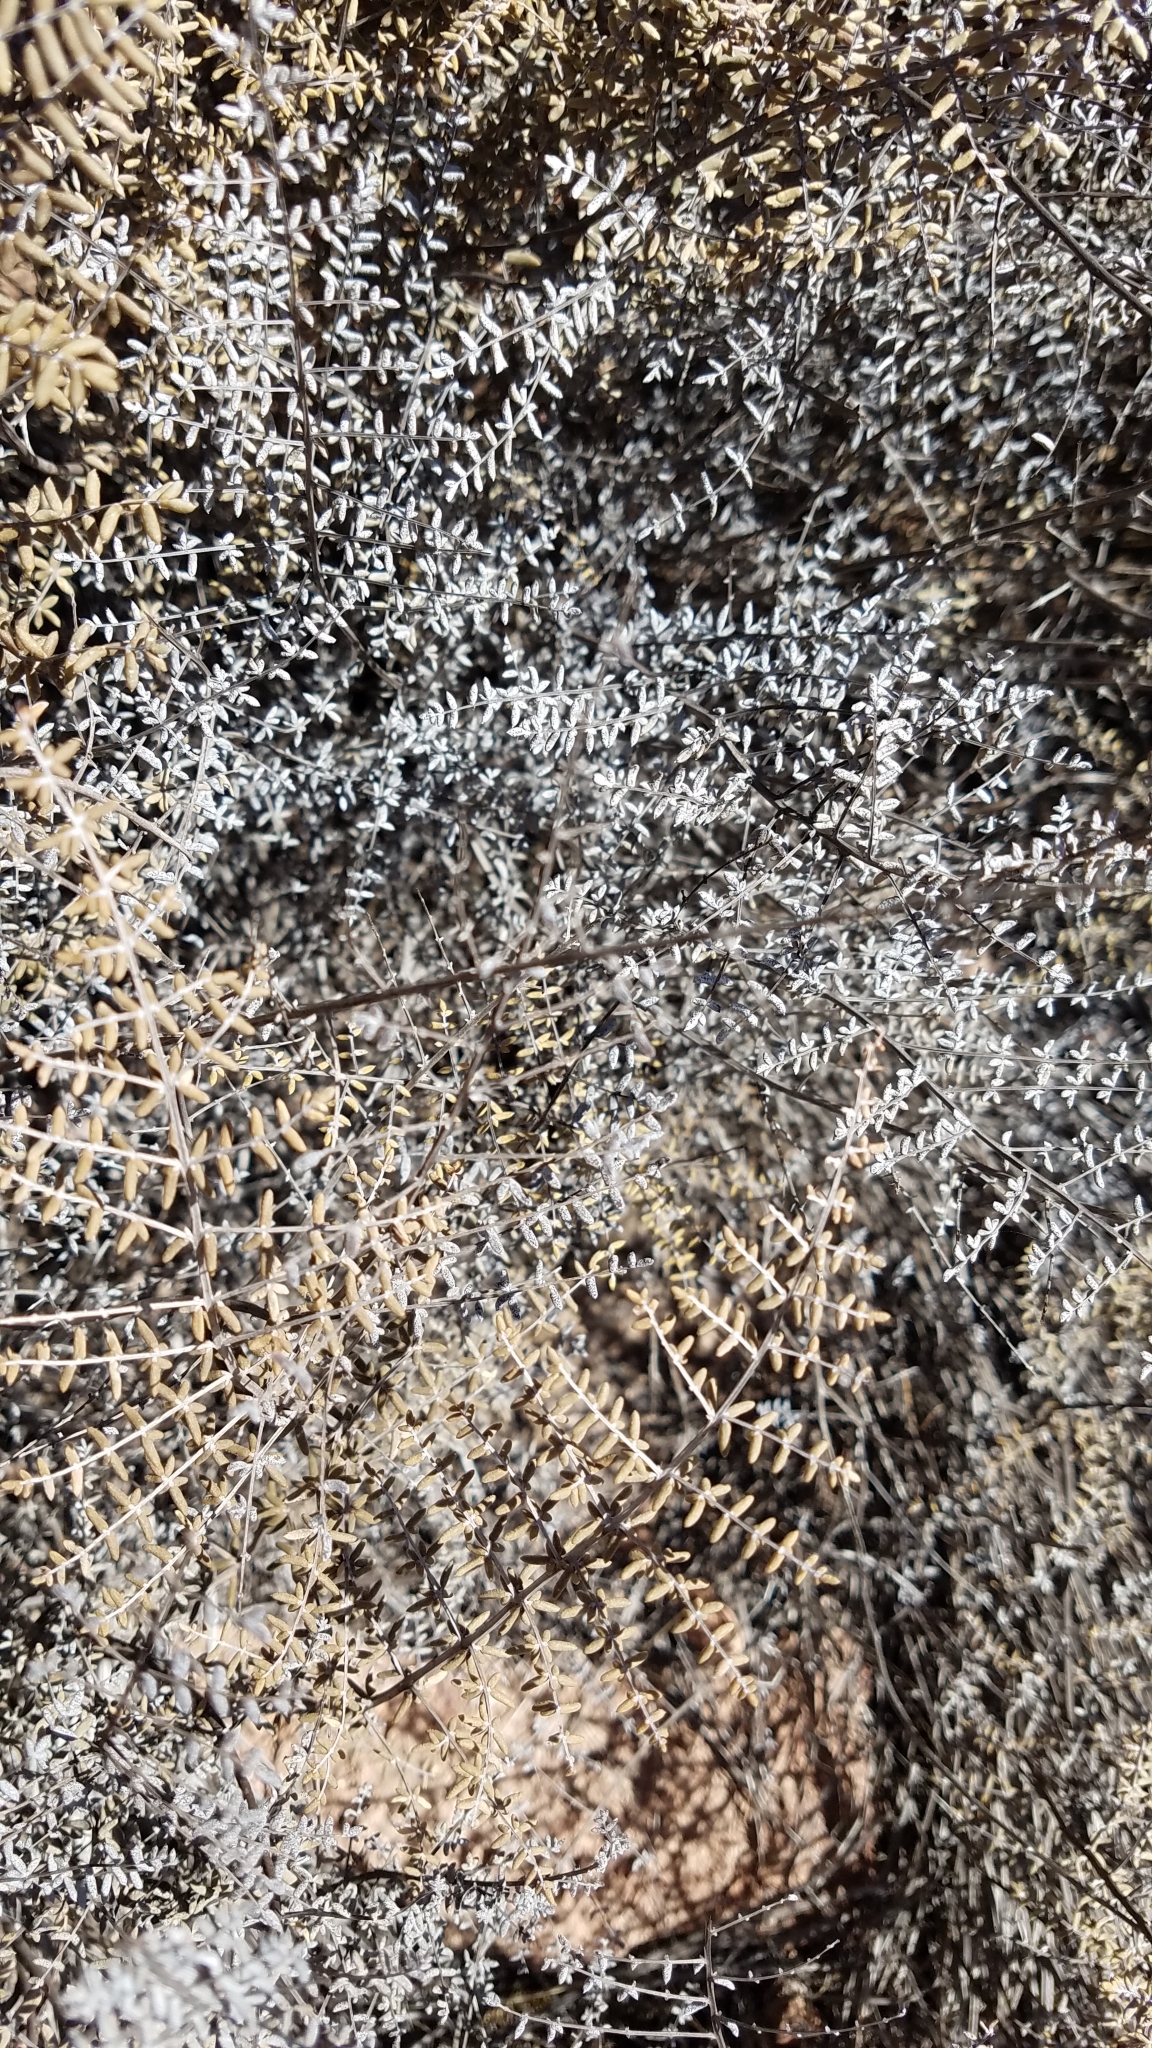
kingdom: Plantae
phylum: Tracheophyta
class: Polypodiopsida
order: Polypodiales
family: Pteridaceae
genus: Pellaea
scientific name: Pellaea mucronata
